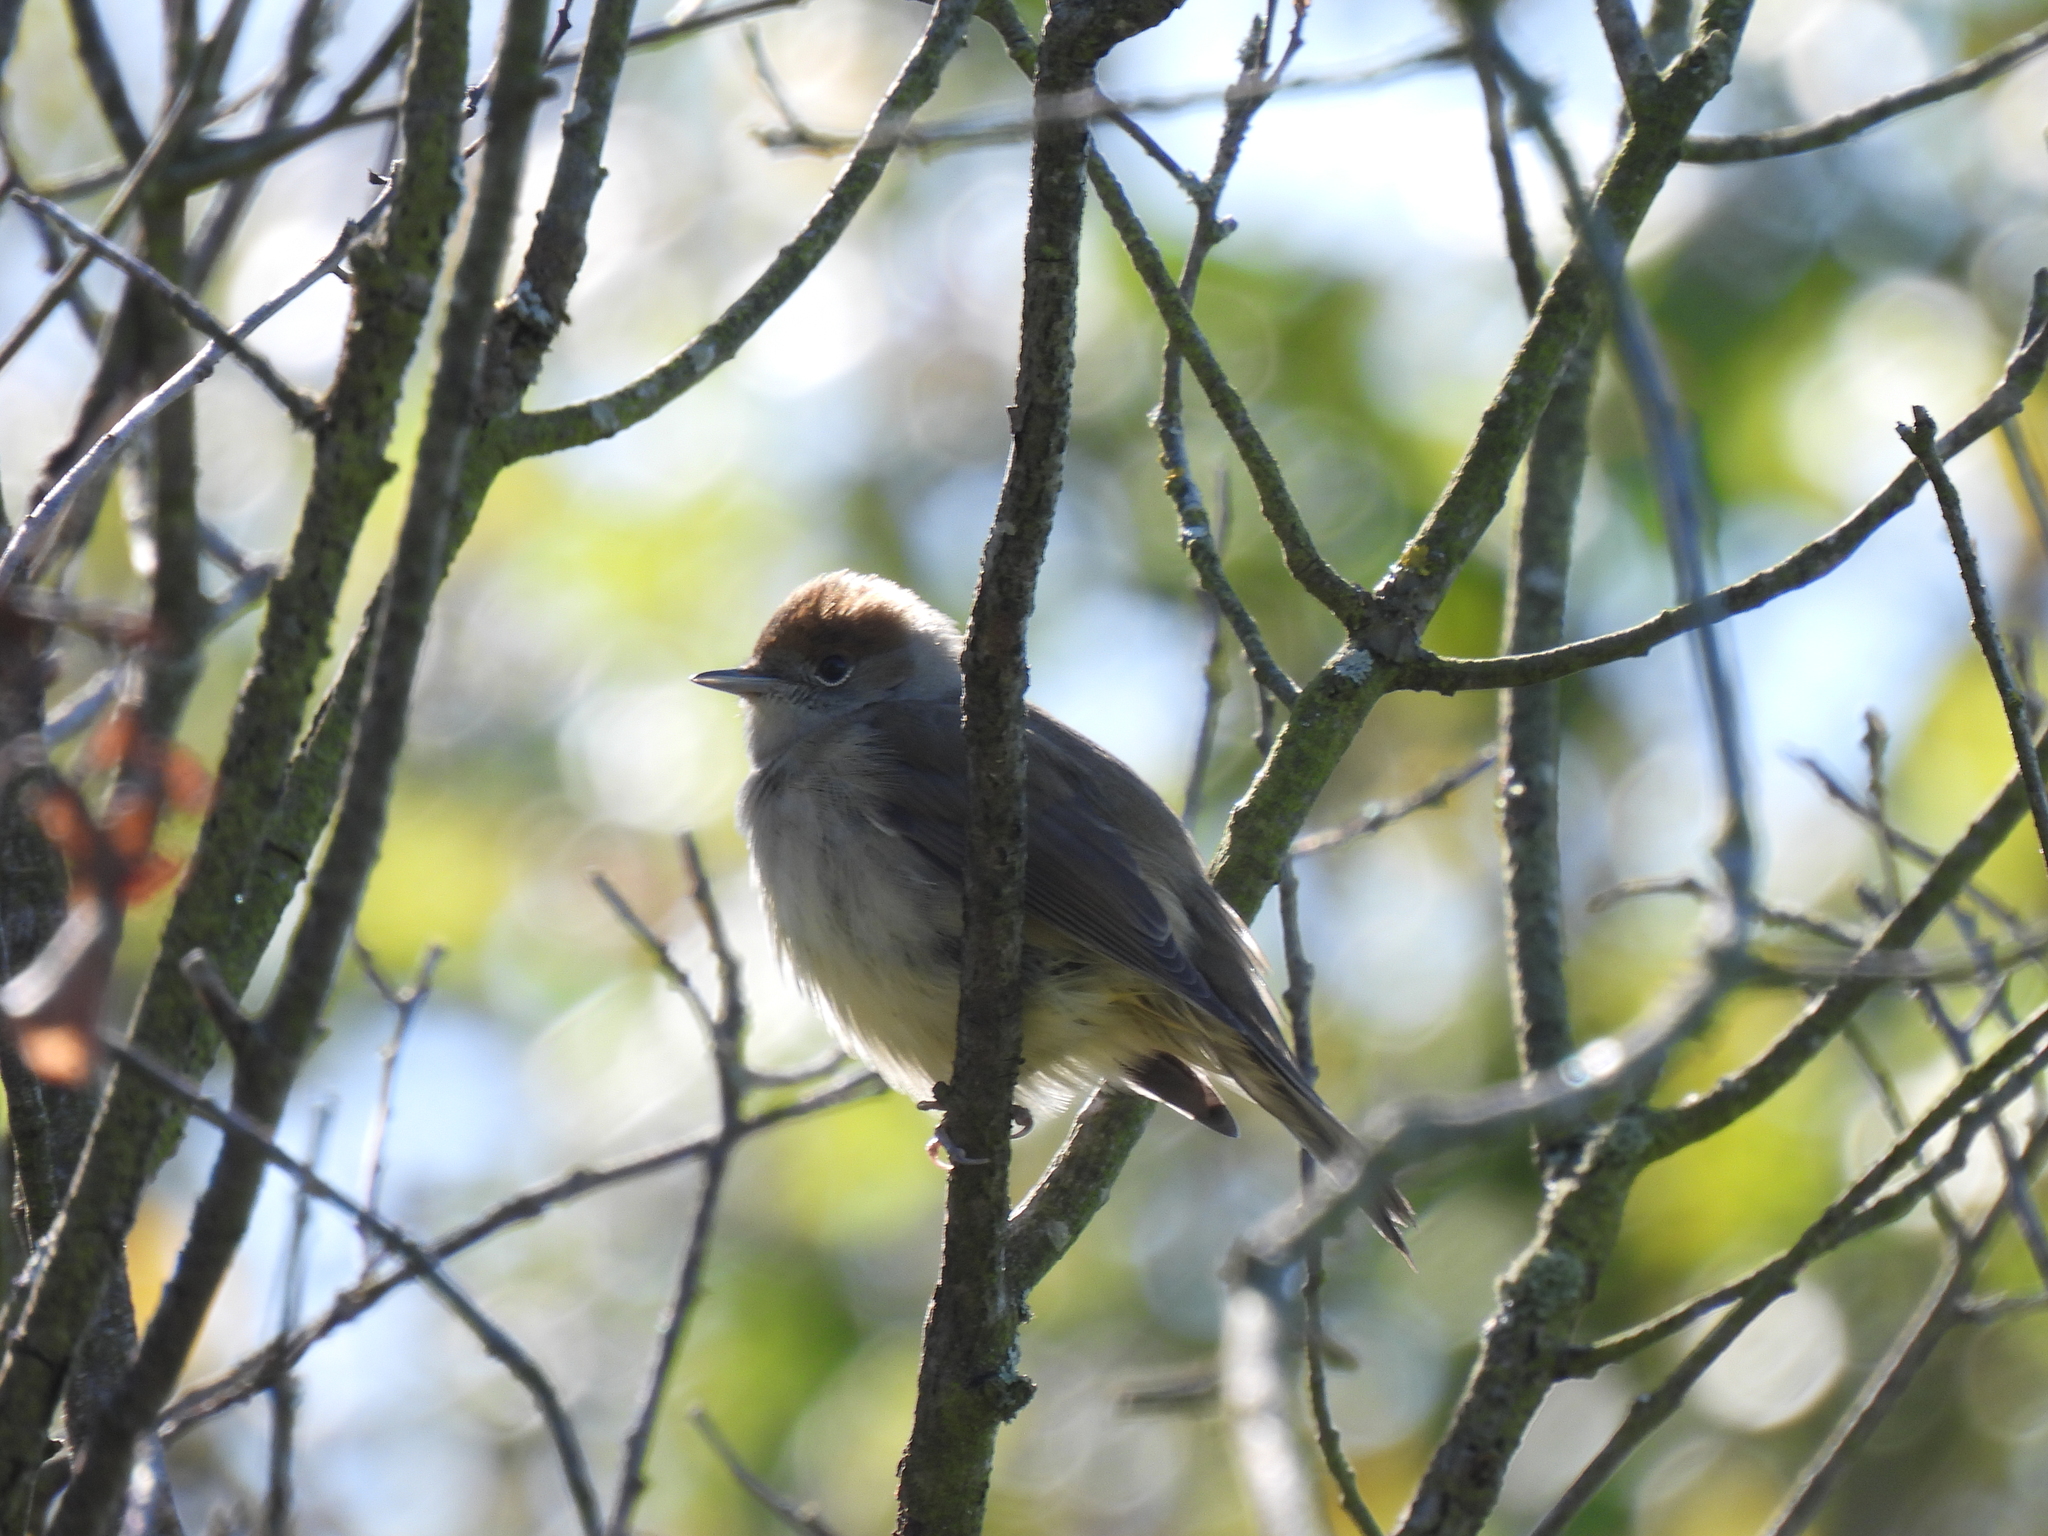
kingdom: Animalia
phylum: Chordata
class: Aves
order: Passeriformes
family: Sylviidae
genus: Sylvia
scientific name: Sylvia atricapilla
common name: Eurasian blackcap
